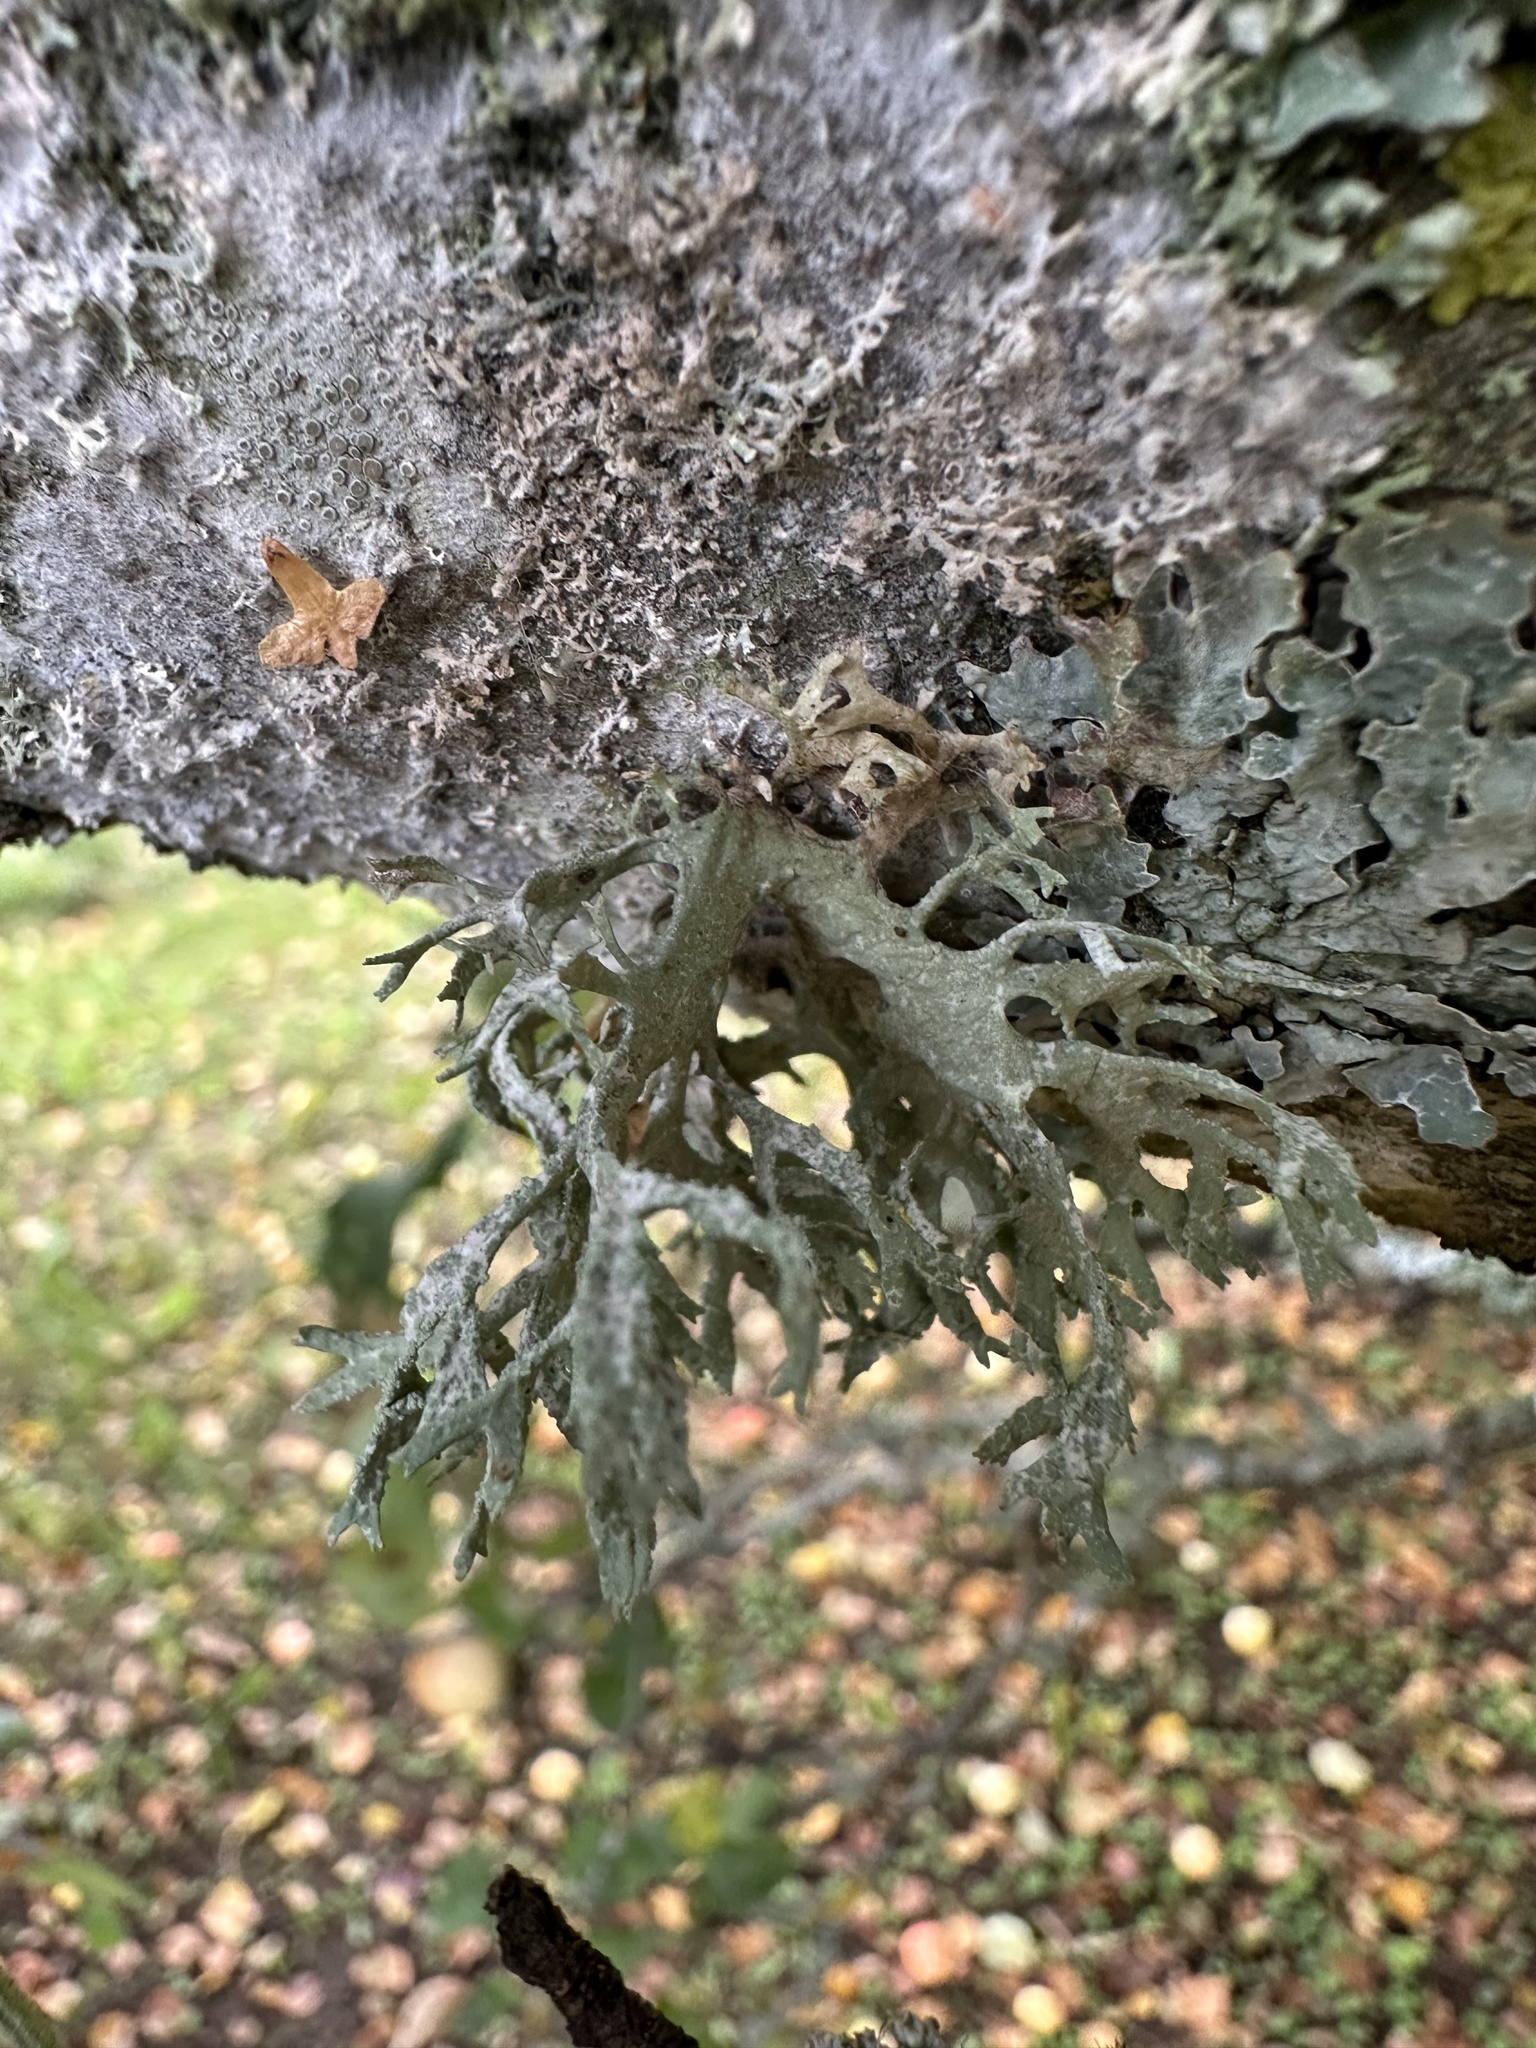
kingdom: Fungi
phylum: Ascomycota
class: Lecanoromycetes
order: Lecanorales
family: Parmeliaceae
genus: Evernia
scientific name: Evernia prunastri
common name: Oak moss
